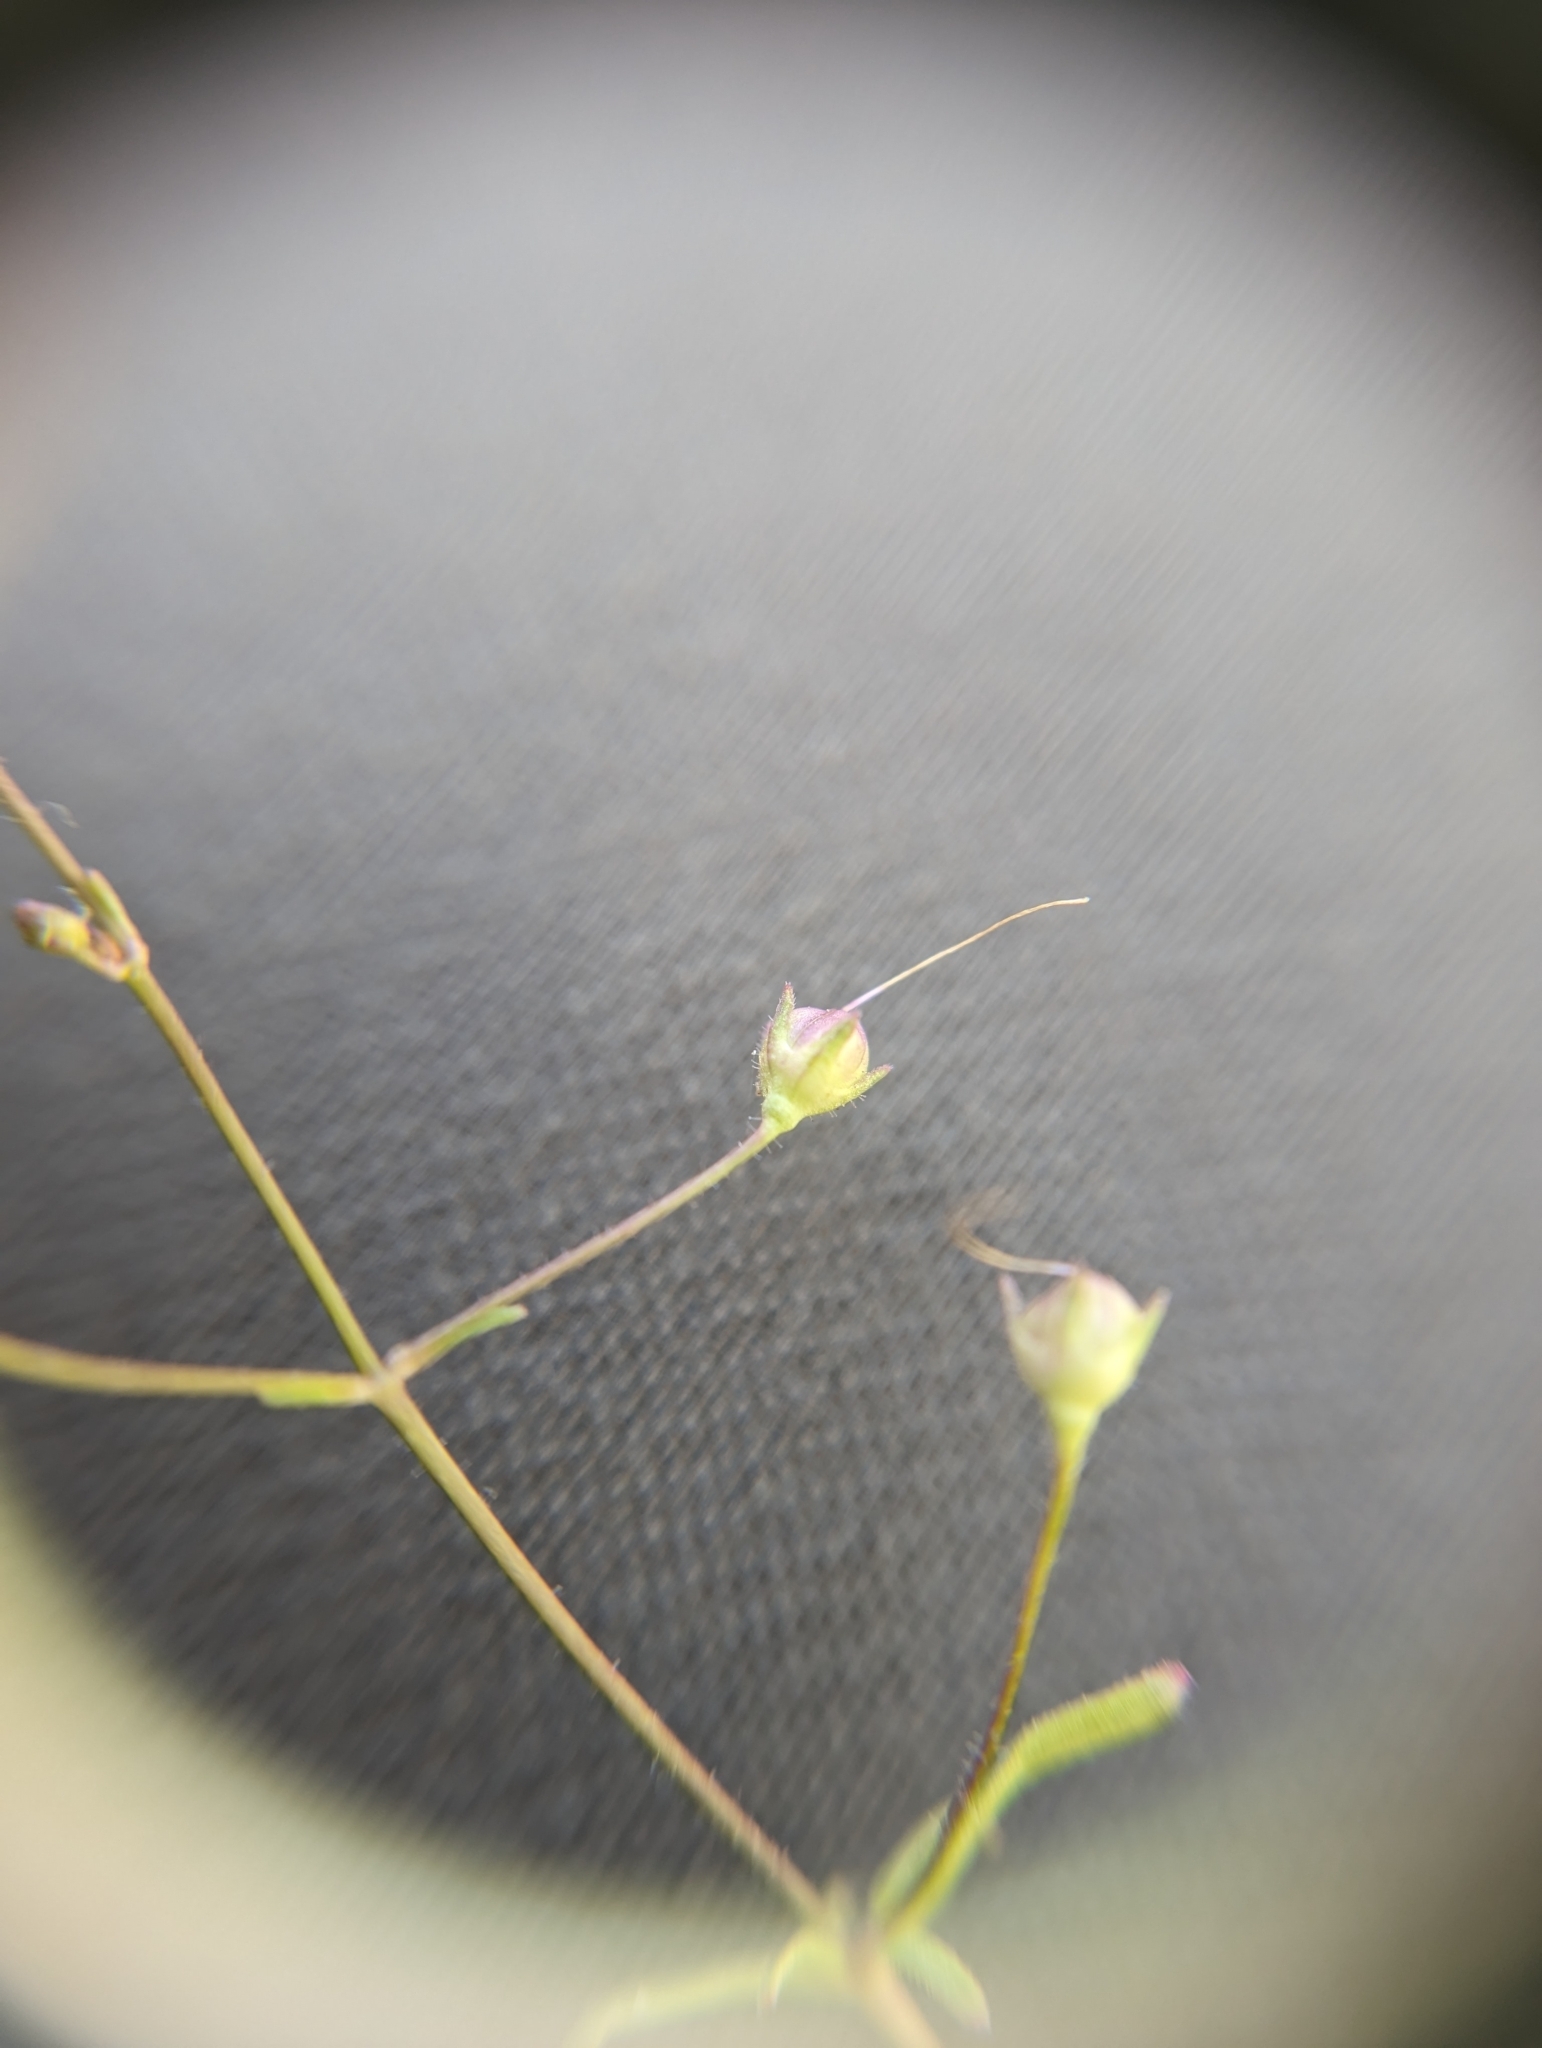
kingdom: Plantae
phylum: Tracheophyta
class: Magnoliopsida
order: Lamiales
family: Plantaginaceae
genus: Tonella
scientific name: Tonella floribunda
